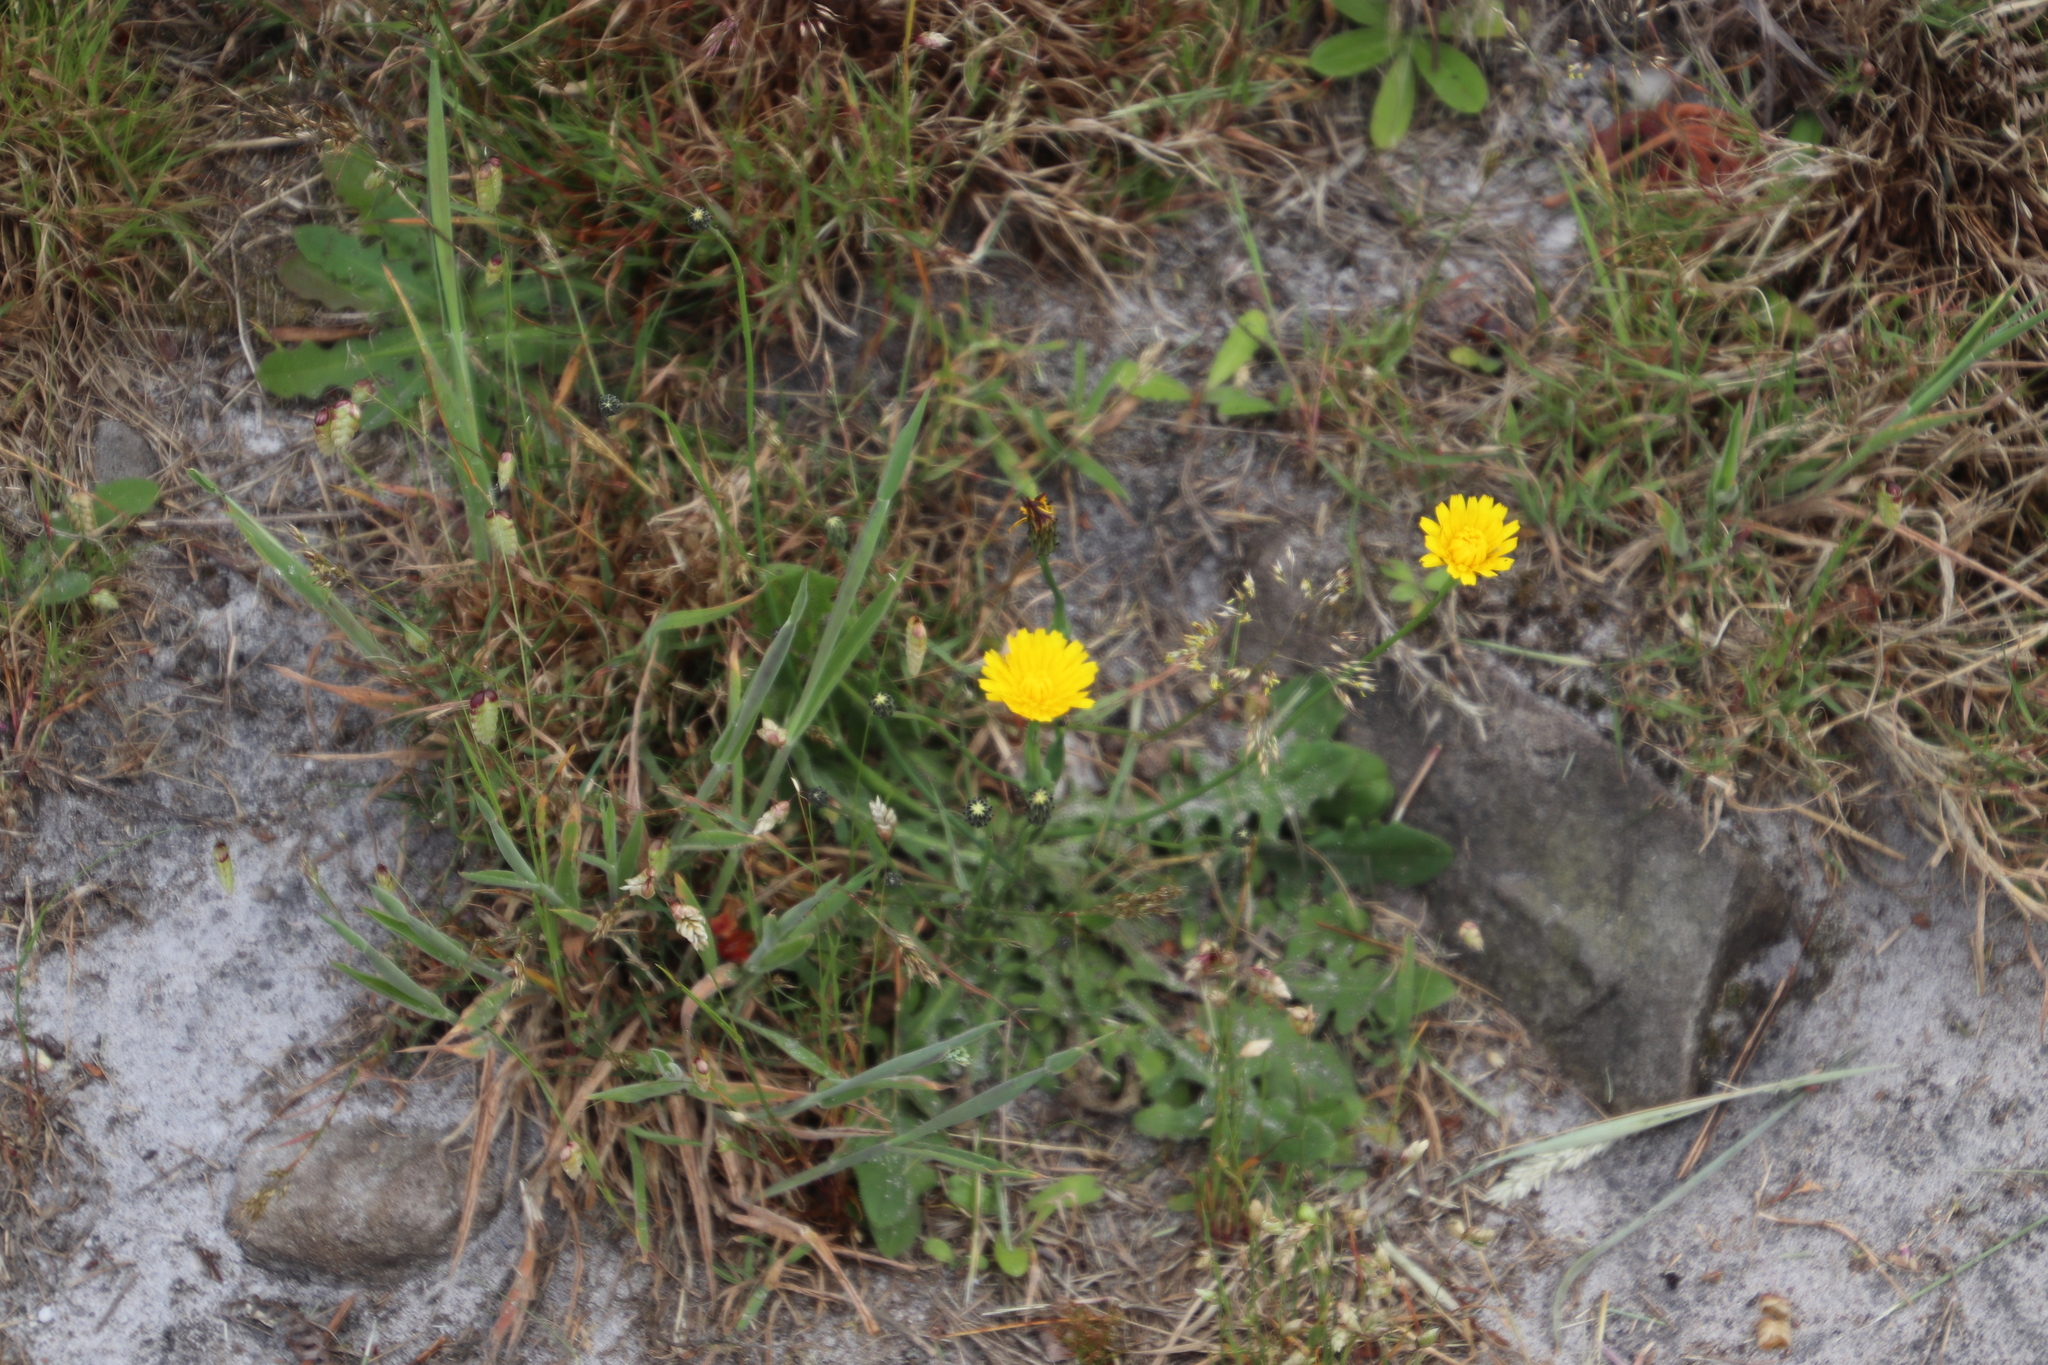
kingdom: Plantae
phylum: Tracheophyta
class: Magnoliopsida
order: Asterales
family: Asteraceae
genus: Hypochaeris
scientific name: Hypochaeris radicata
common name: Flatweed
